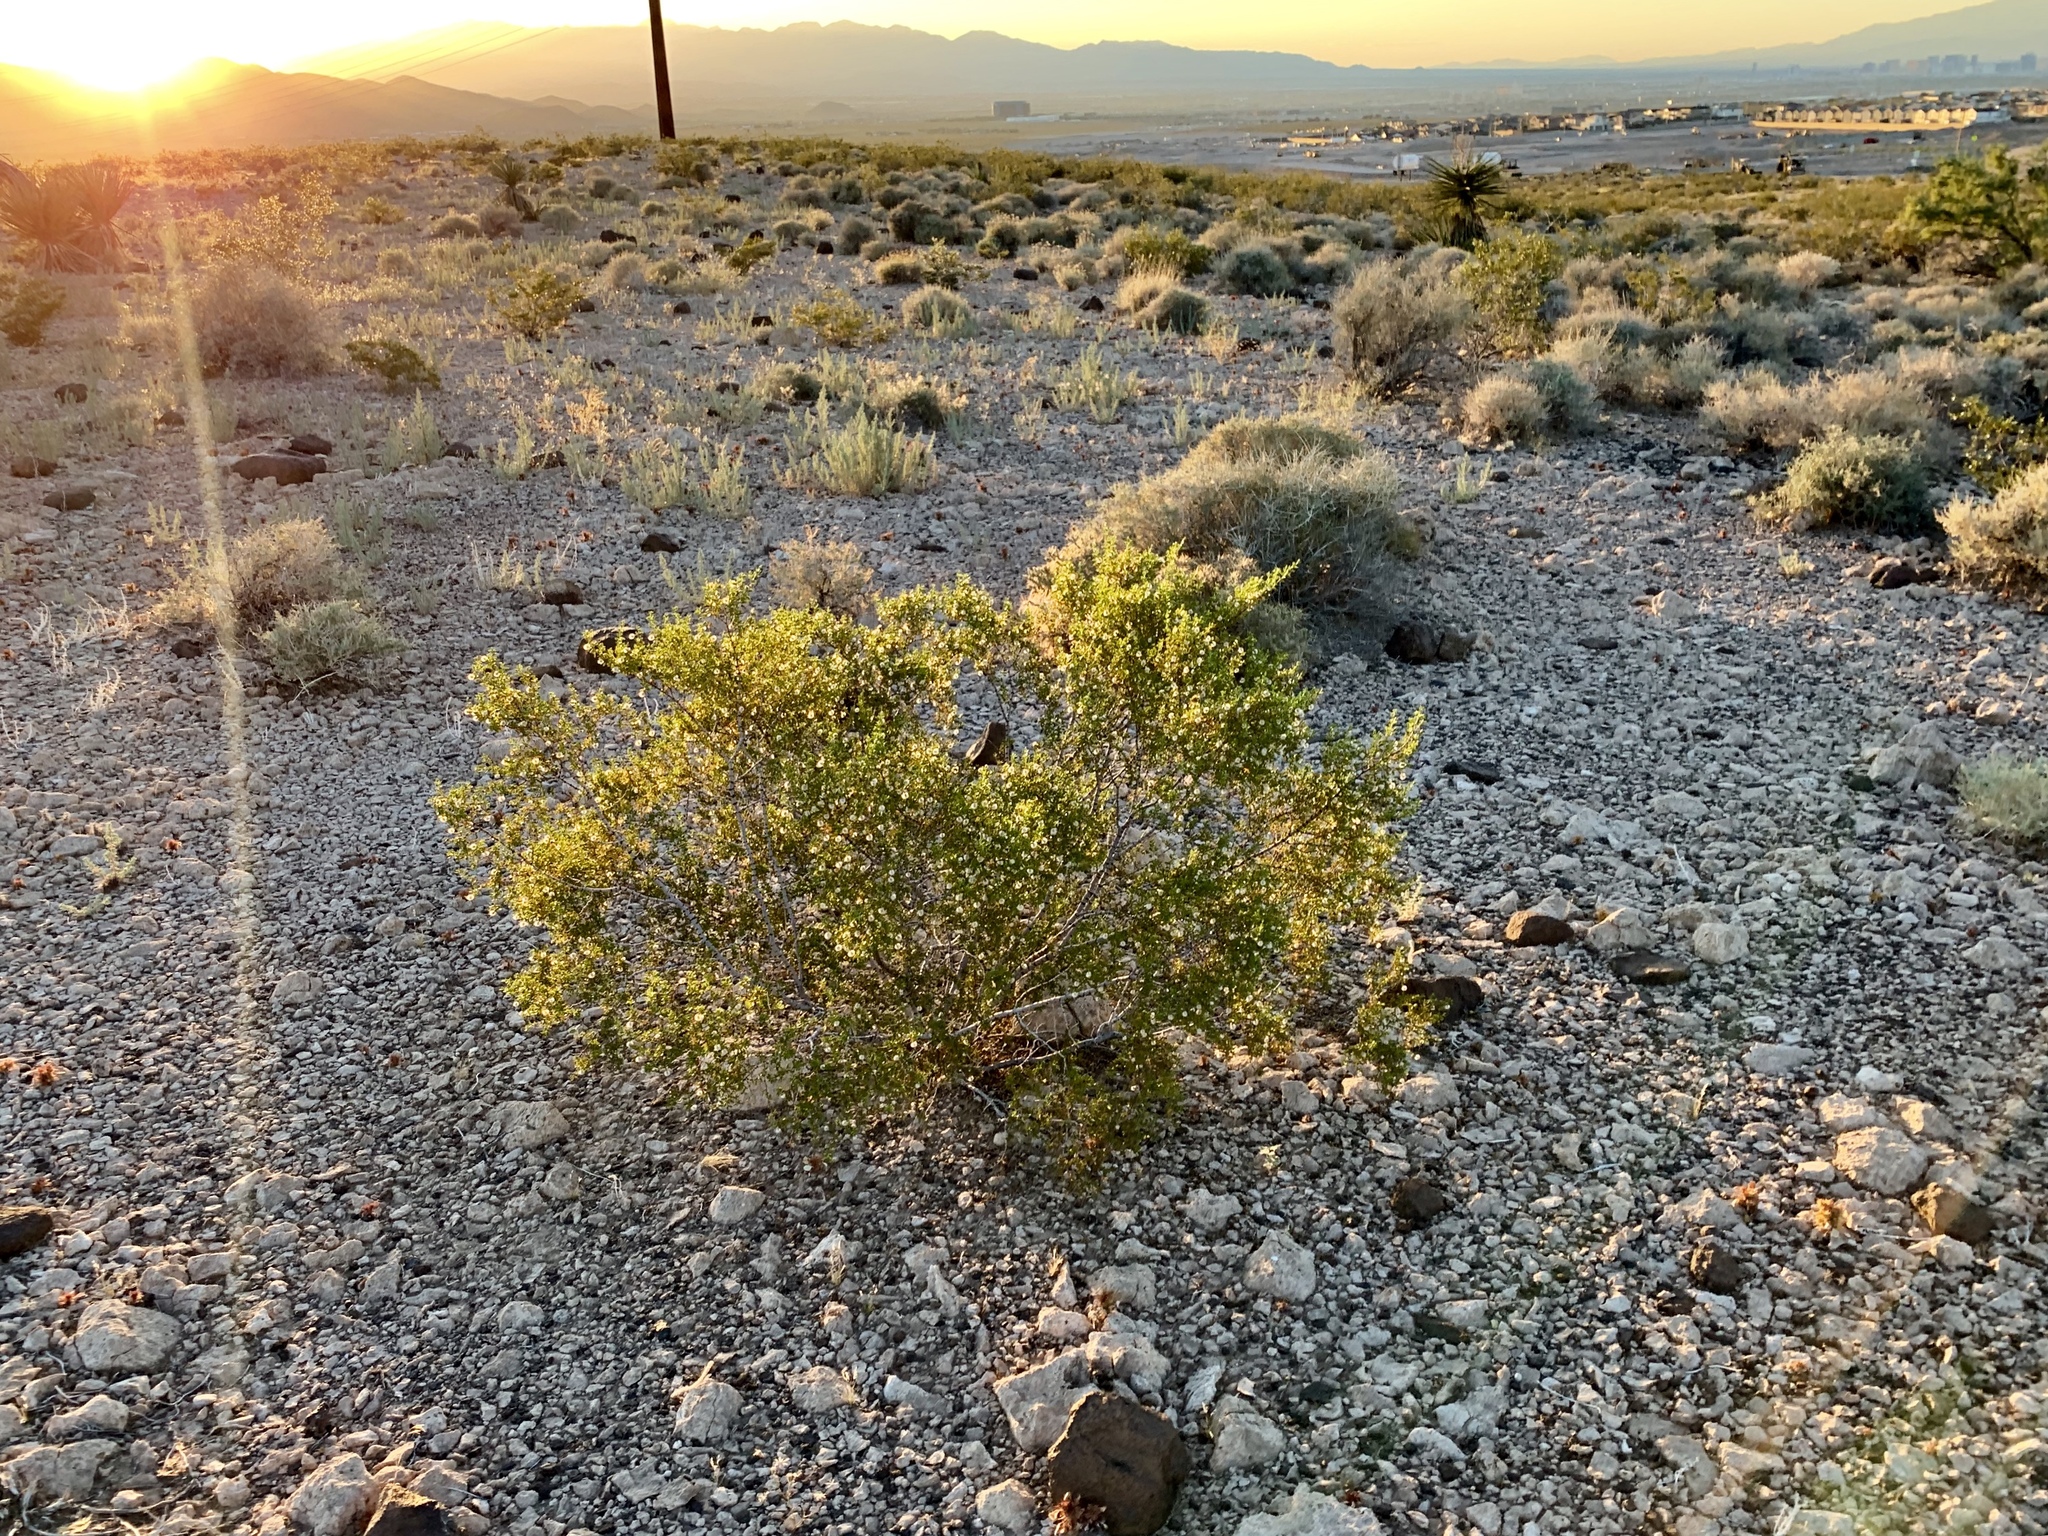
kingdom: Plantae
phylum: Tracheophyta
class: Magnoliopsida
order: Zygophyllales
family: Zygophyllaceae
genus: Larrea
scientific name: Larrea tridentata
